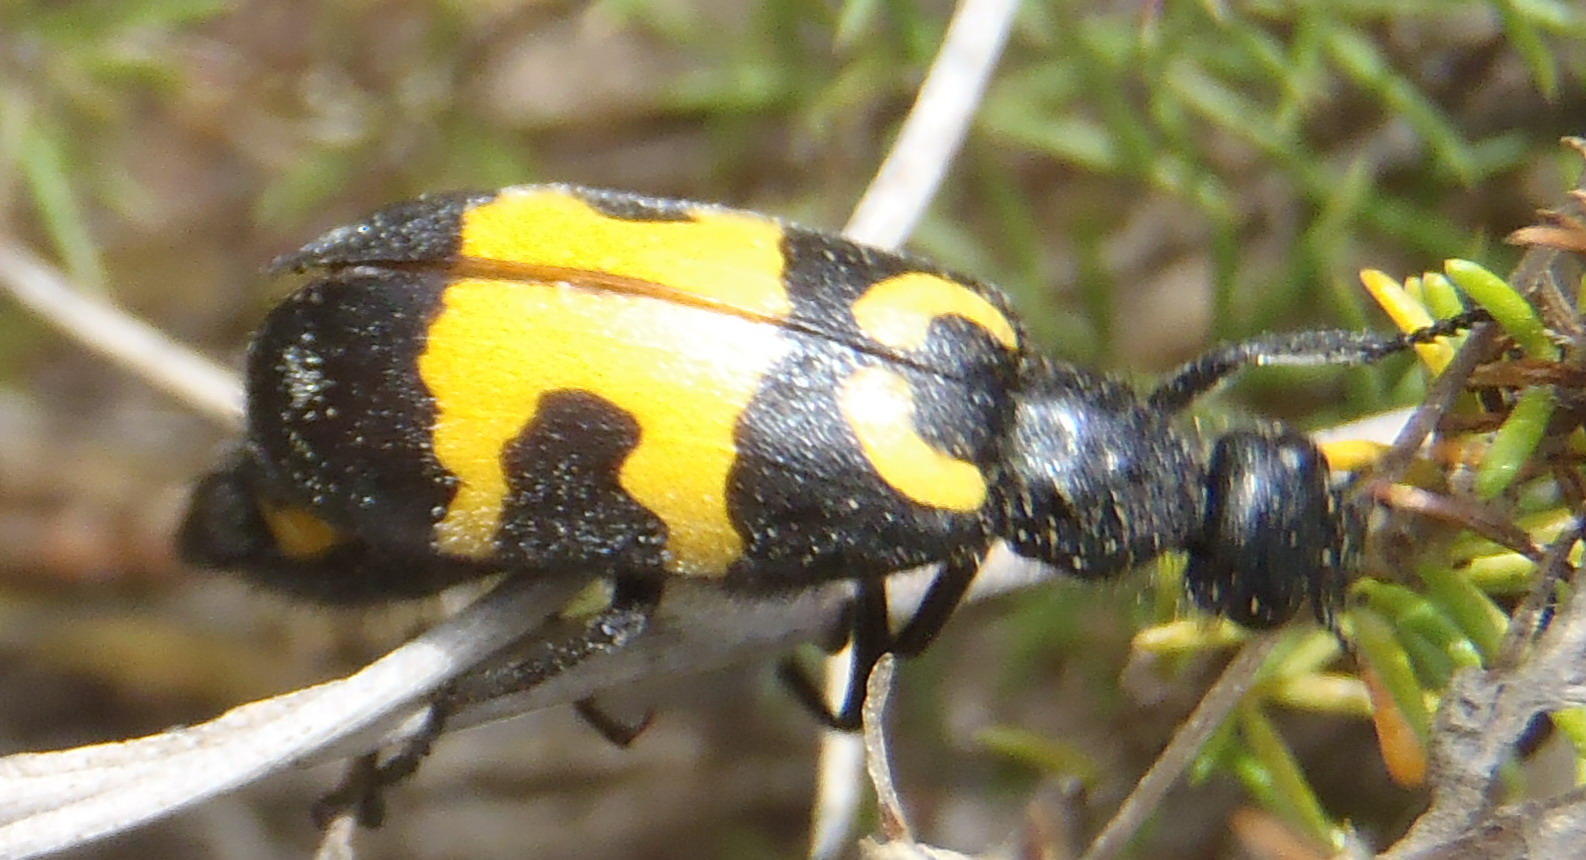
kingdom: Animalia
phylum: Arthropoda
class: Insecta
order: Coleoptera
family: Meloidae
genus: Meloe
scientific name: Meloe lunata
